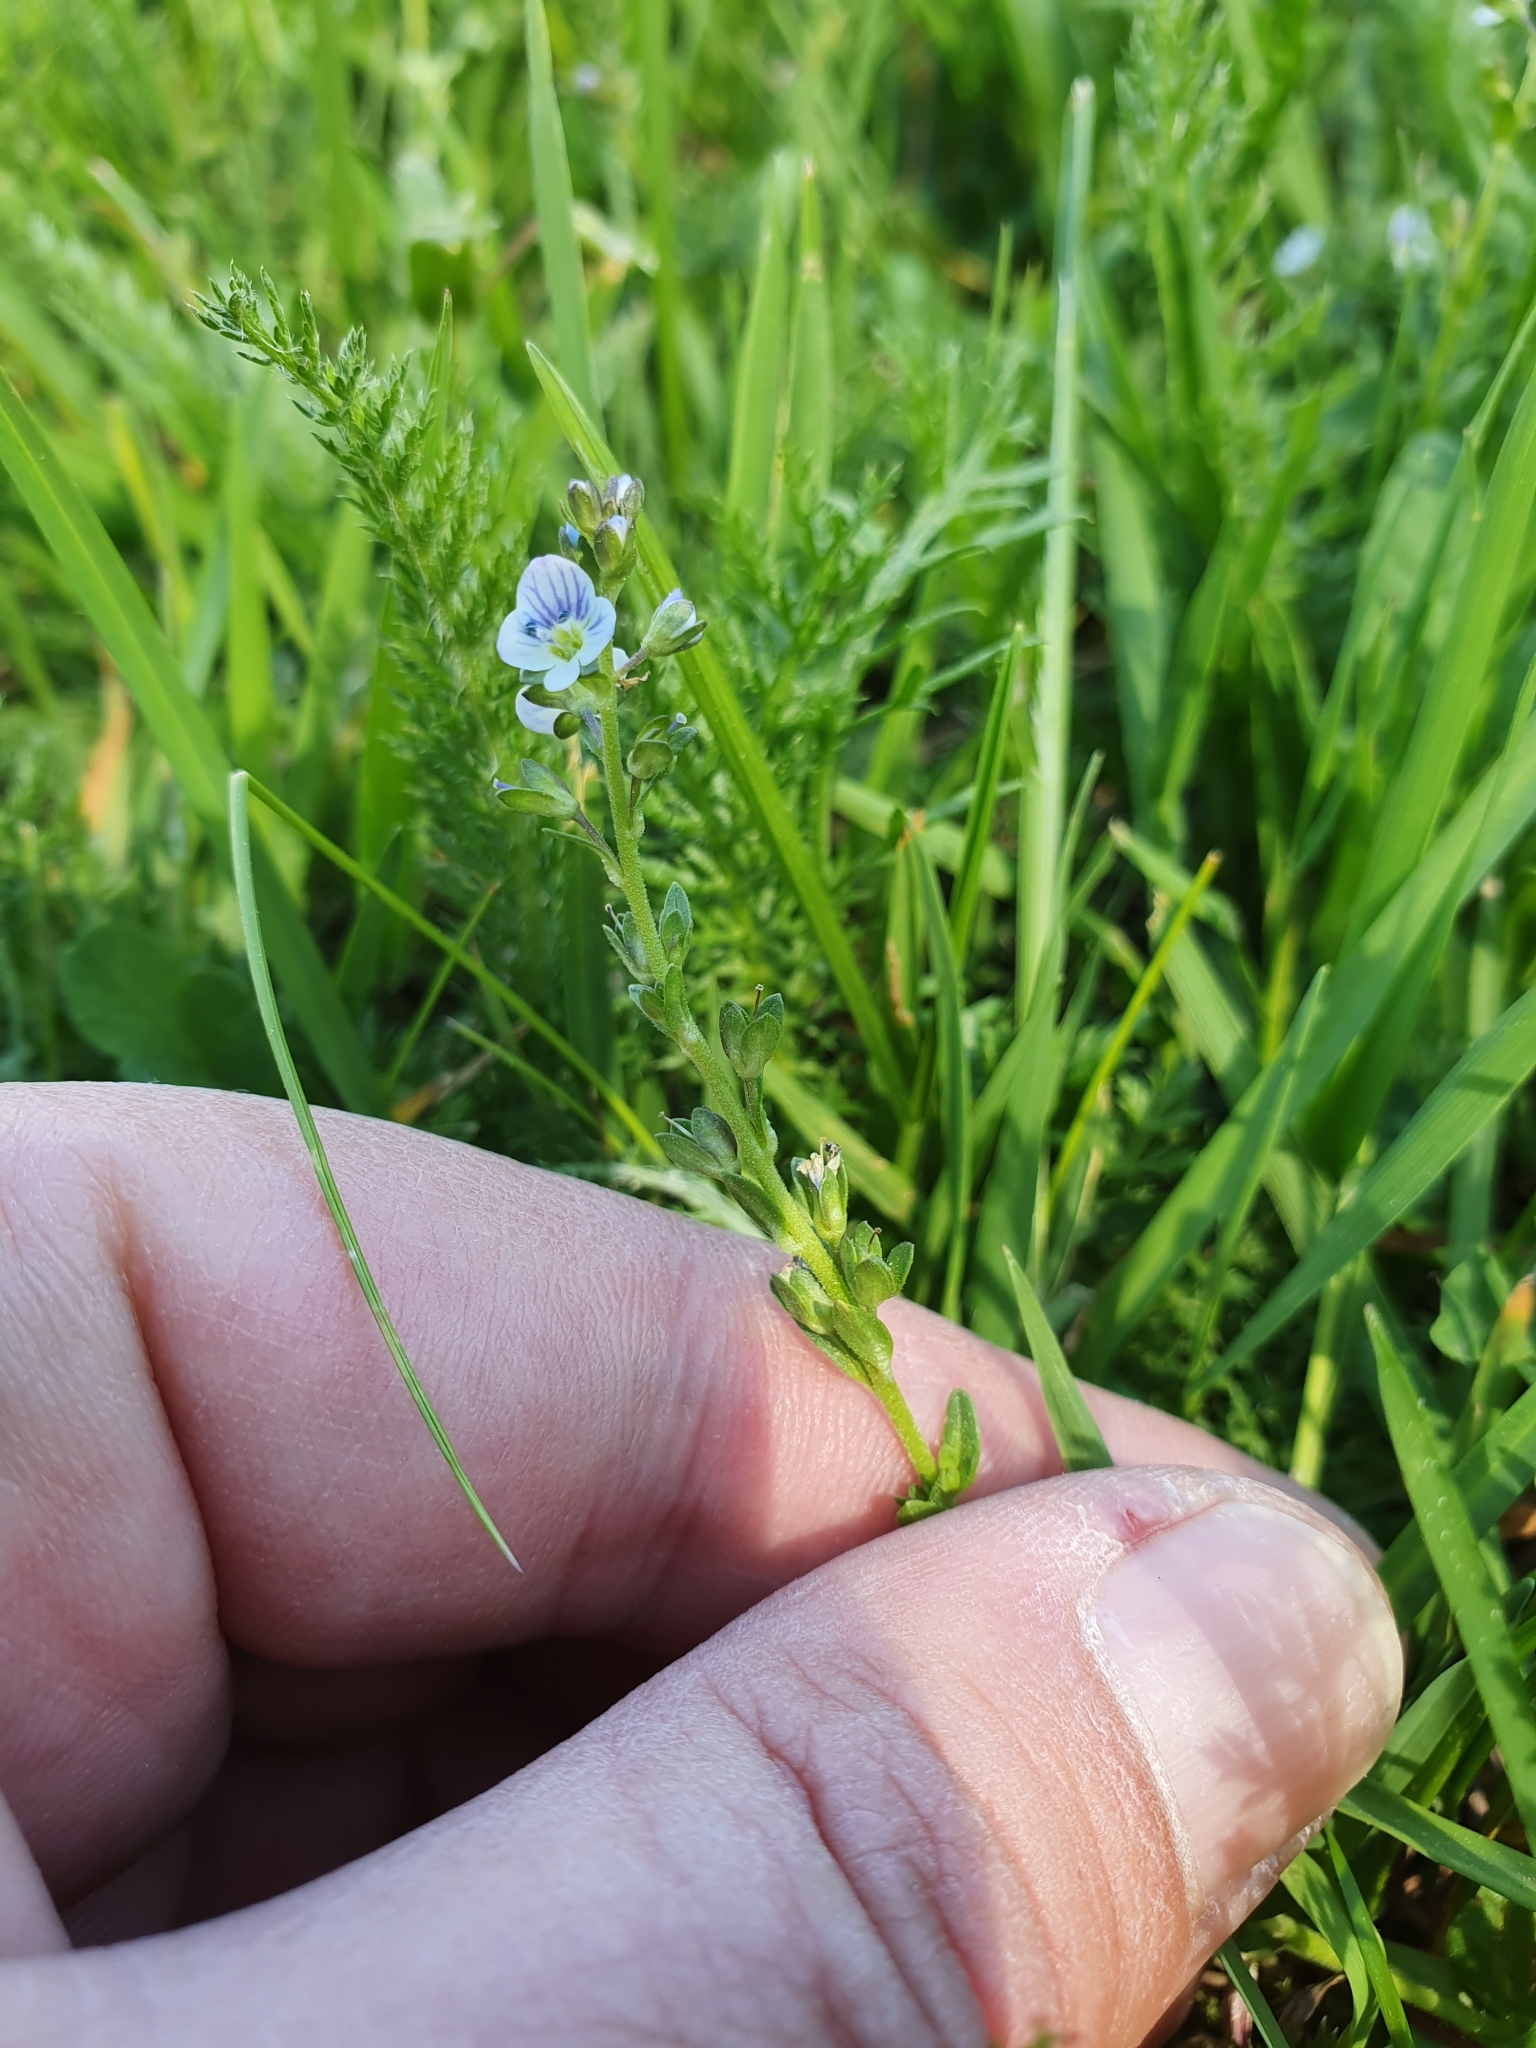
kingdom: Plantae
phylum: Tracheophyta
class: Magnoliopsida
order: Lamiales
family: Plantaginaceae
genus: Veronica
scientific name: Veronica serpyllifolia
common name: Thyme-leaved speedwell
